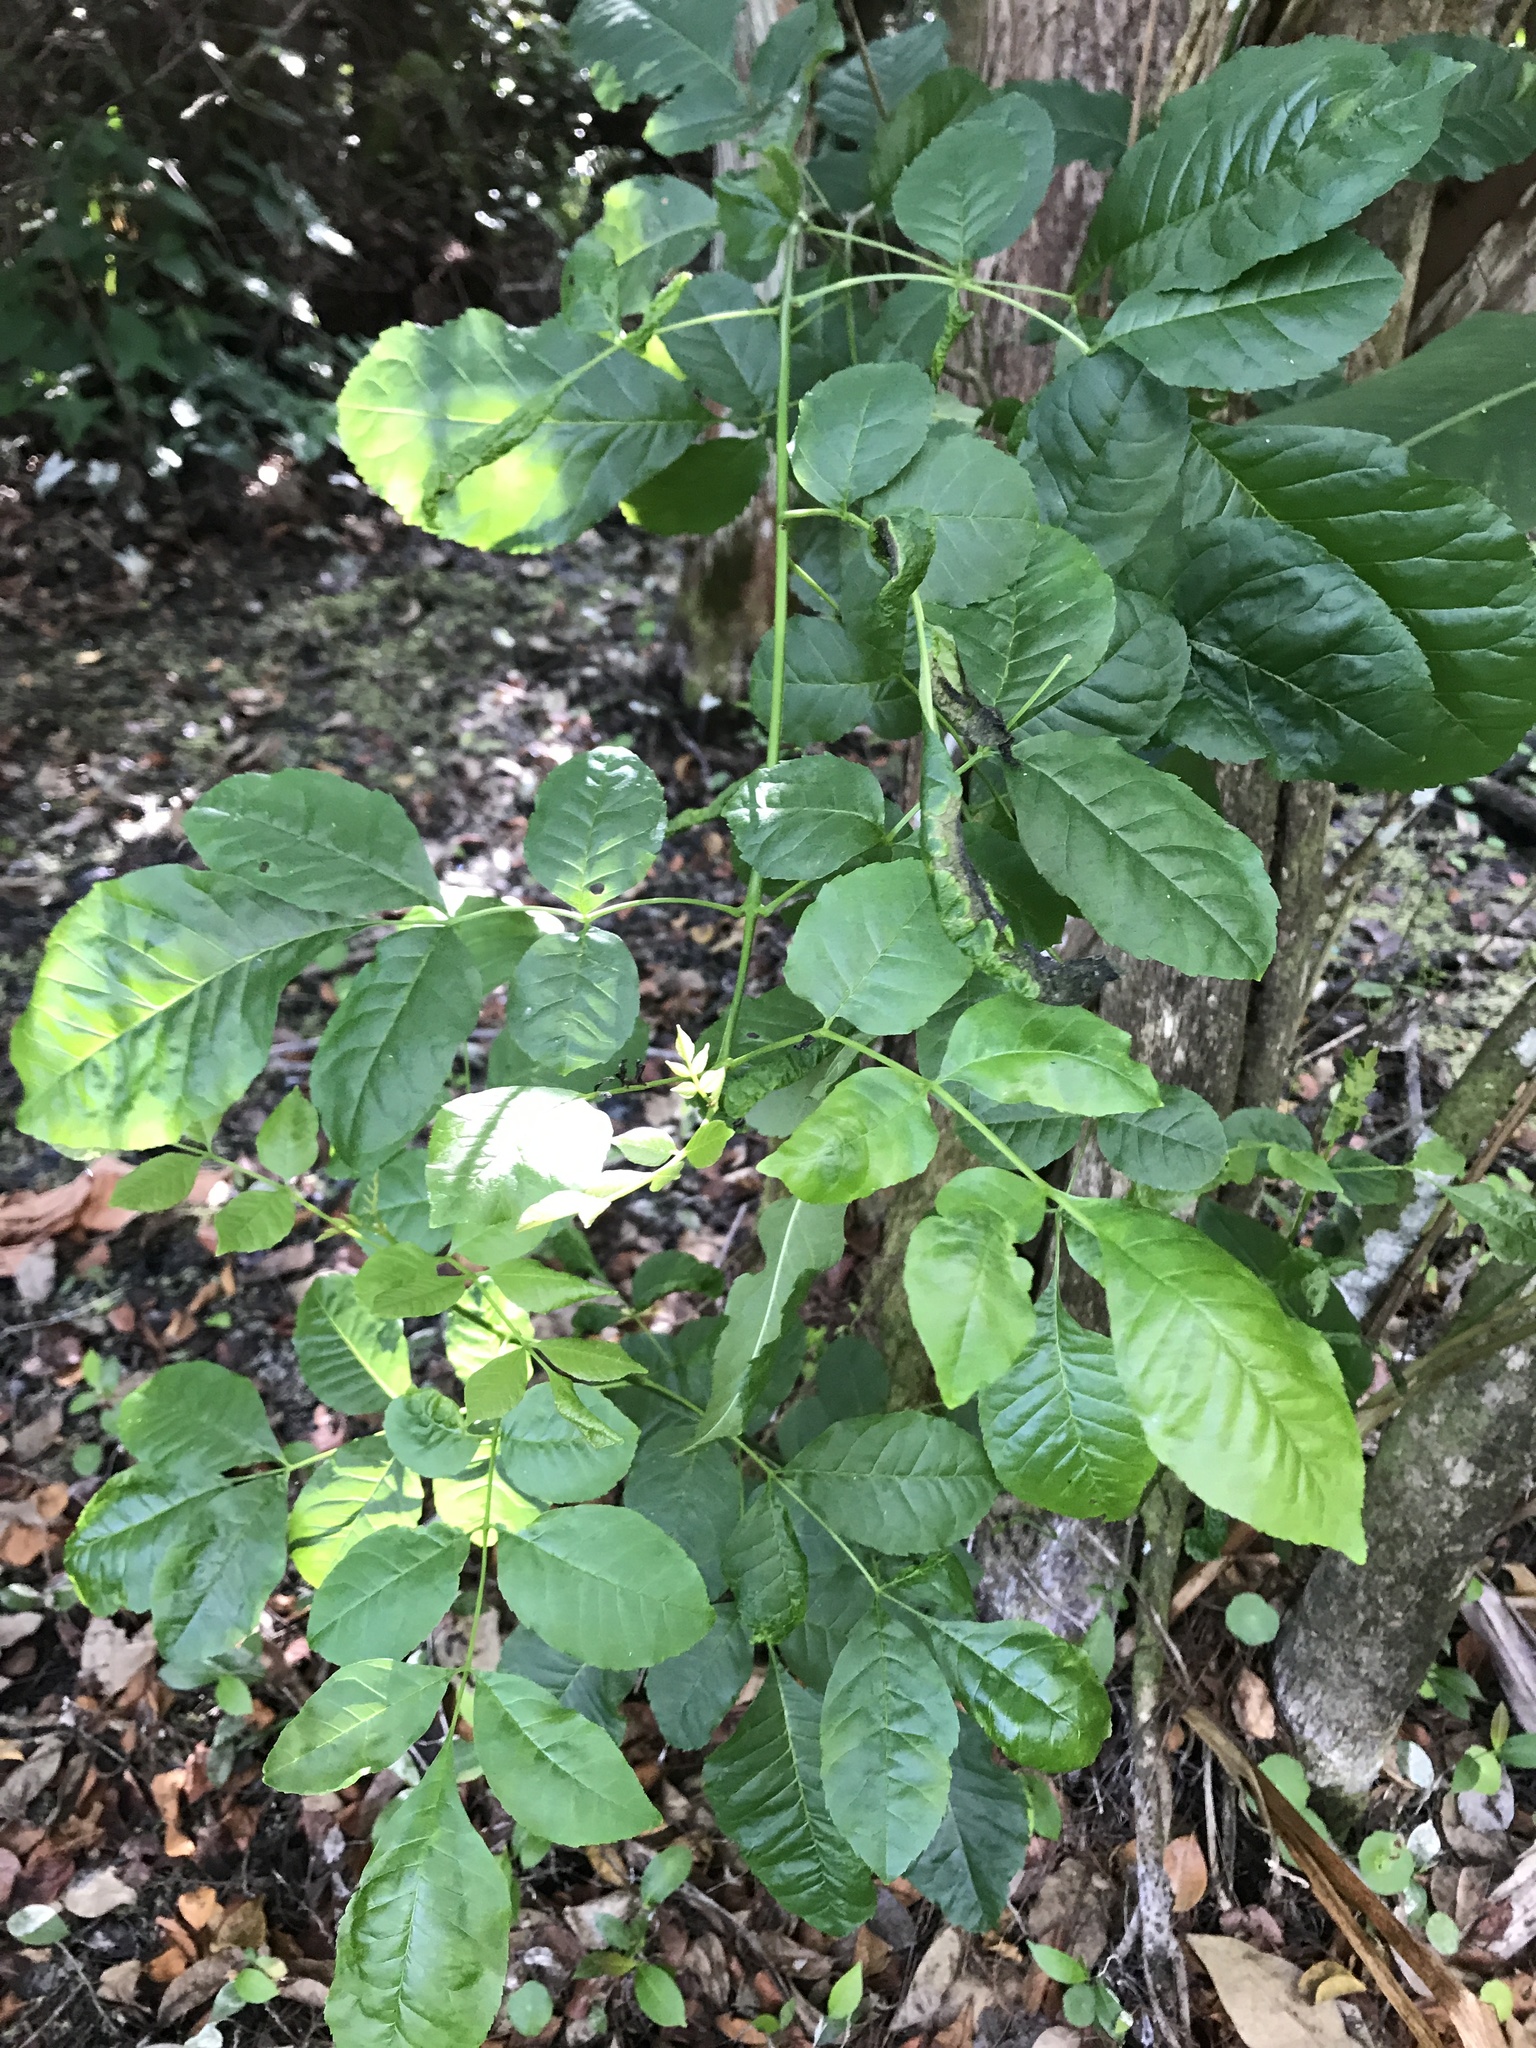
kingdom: Plantae
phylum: Tracheophyta
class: Magnoliopsida
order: Lamiales
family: Oleaceae
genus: Fraxinus
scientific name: Fraxinus caroliniana
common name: Carolina ash
